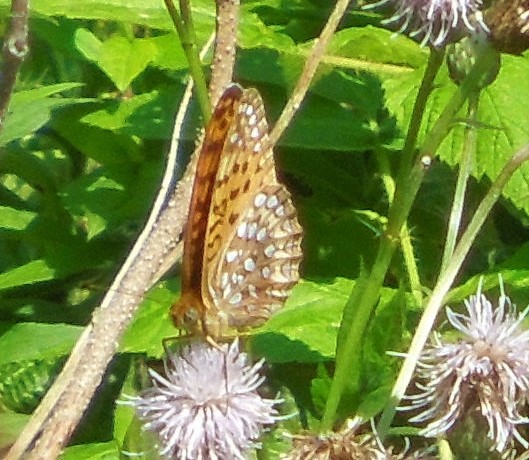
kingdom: Animalia
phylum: Arthropoda
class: Insecta
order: Lepidoptera
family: Nymphalidae
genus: Speyeria
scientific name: Speyeria atlantis
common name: Atlantis fritillary
